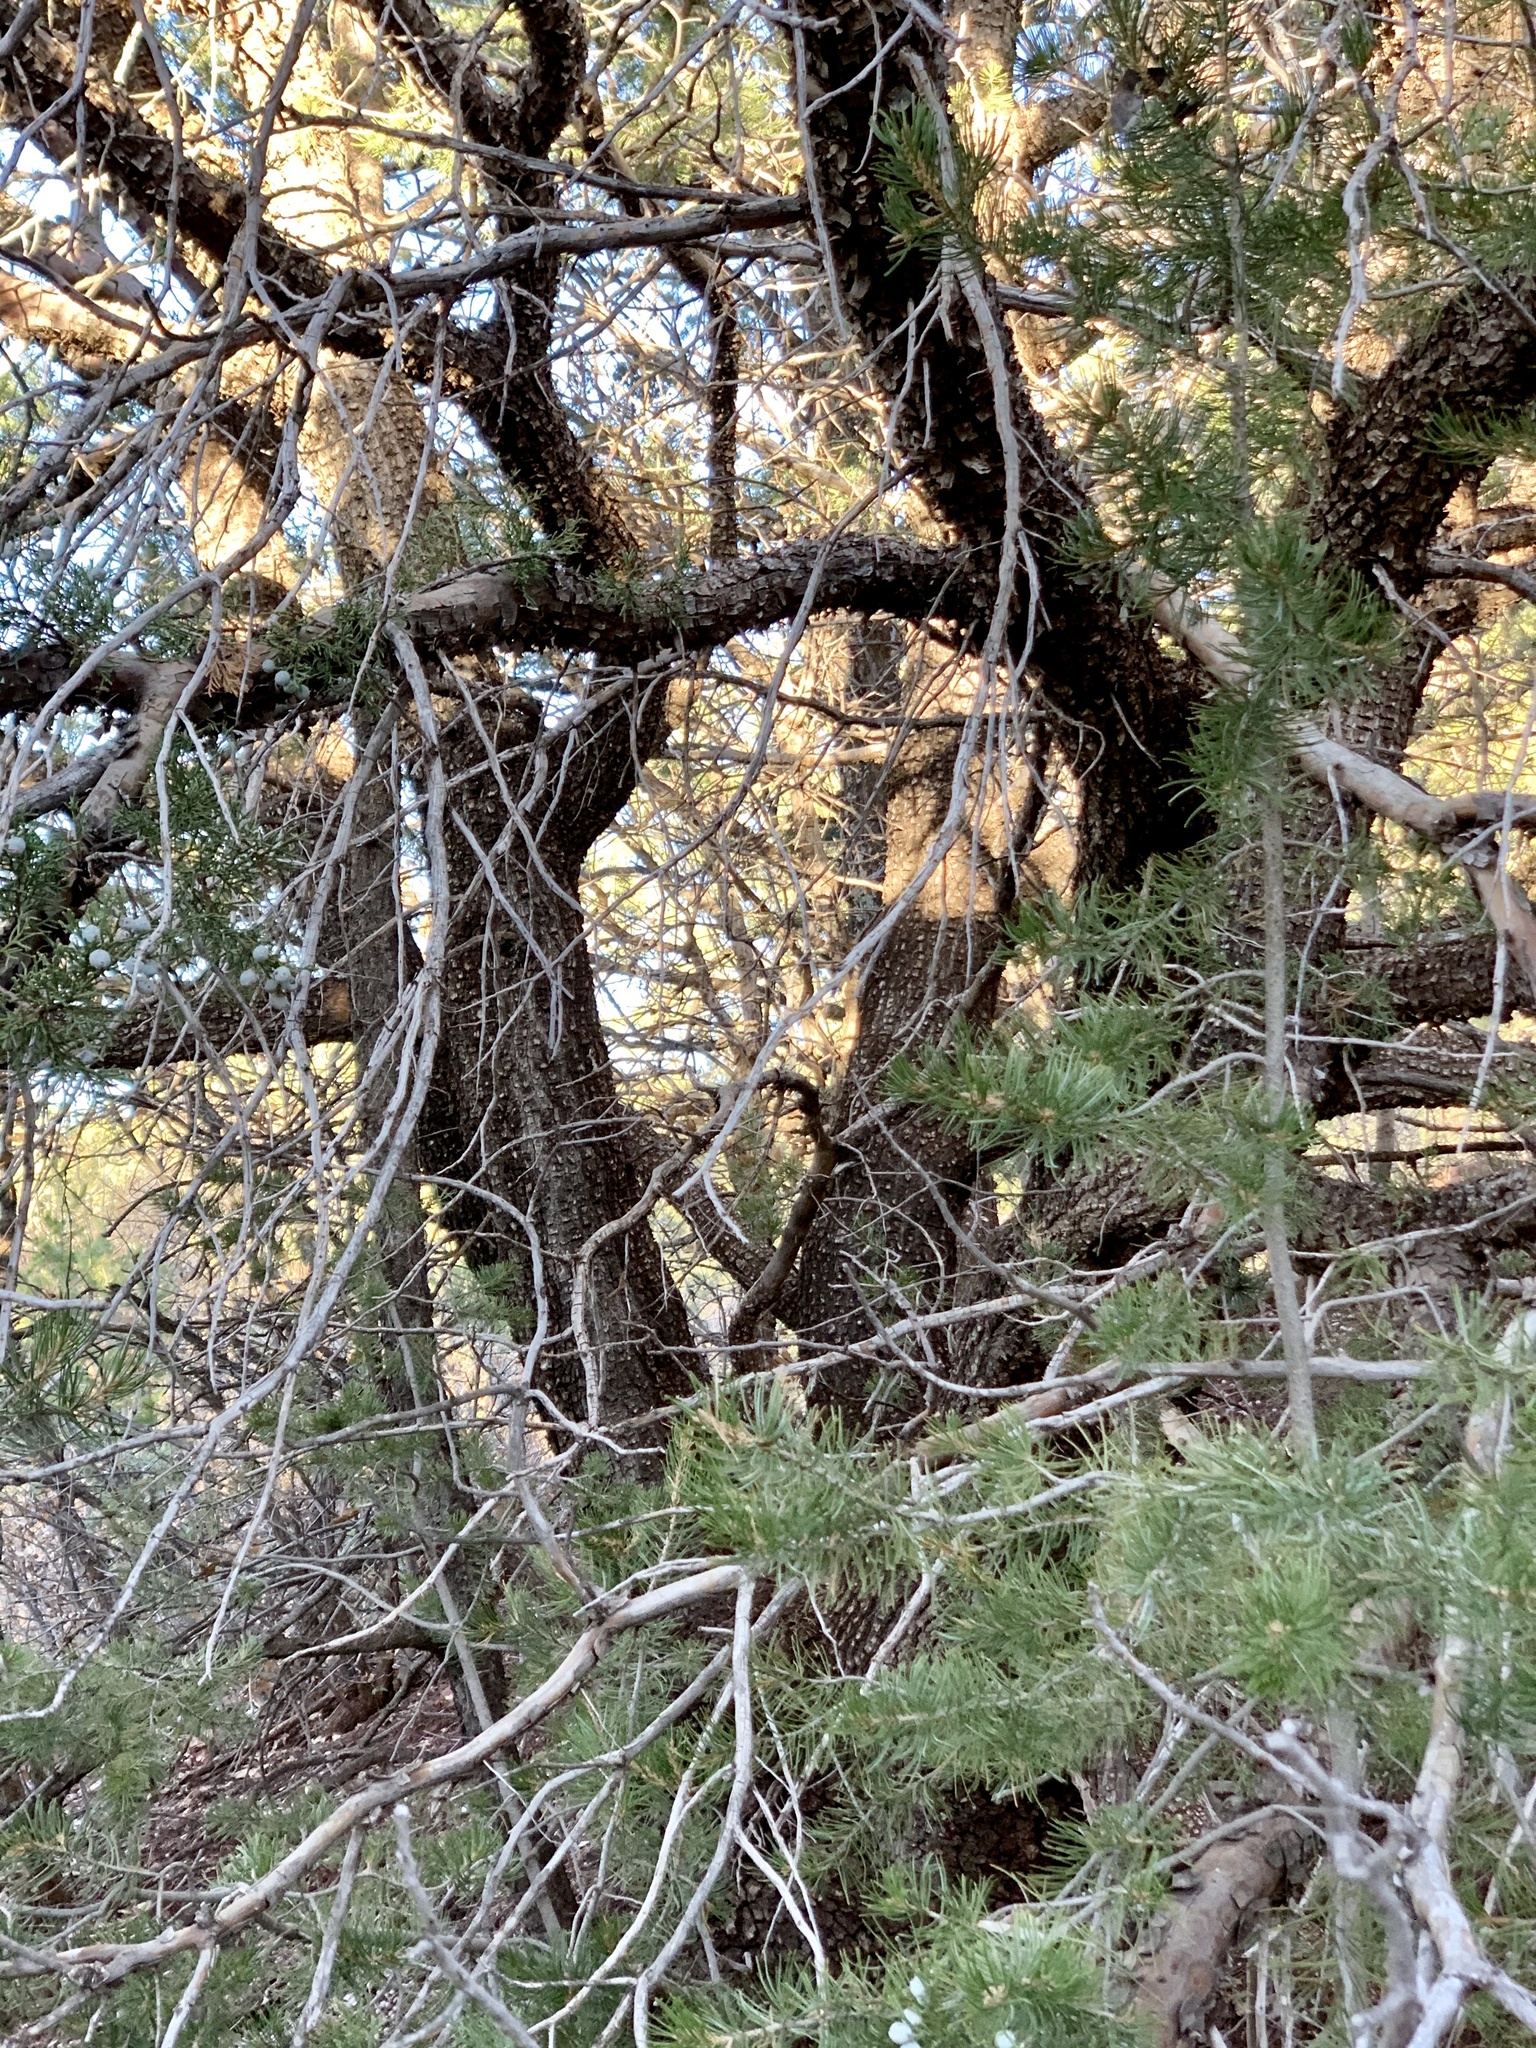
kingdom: Plantae
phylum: Tracheophyta
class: Pinopsida
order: Pinales
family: Cupressaceae
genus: Juniperus
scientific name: Juniperus deppeana
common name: Alligator juniper
